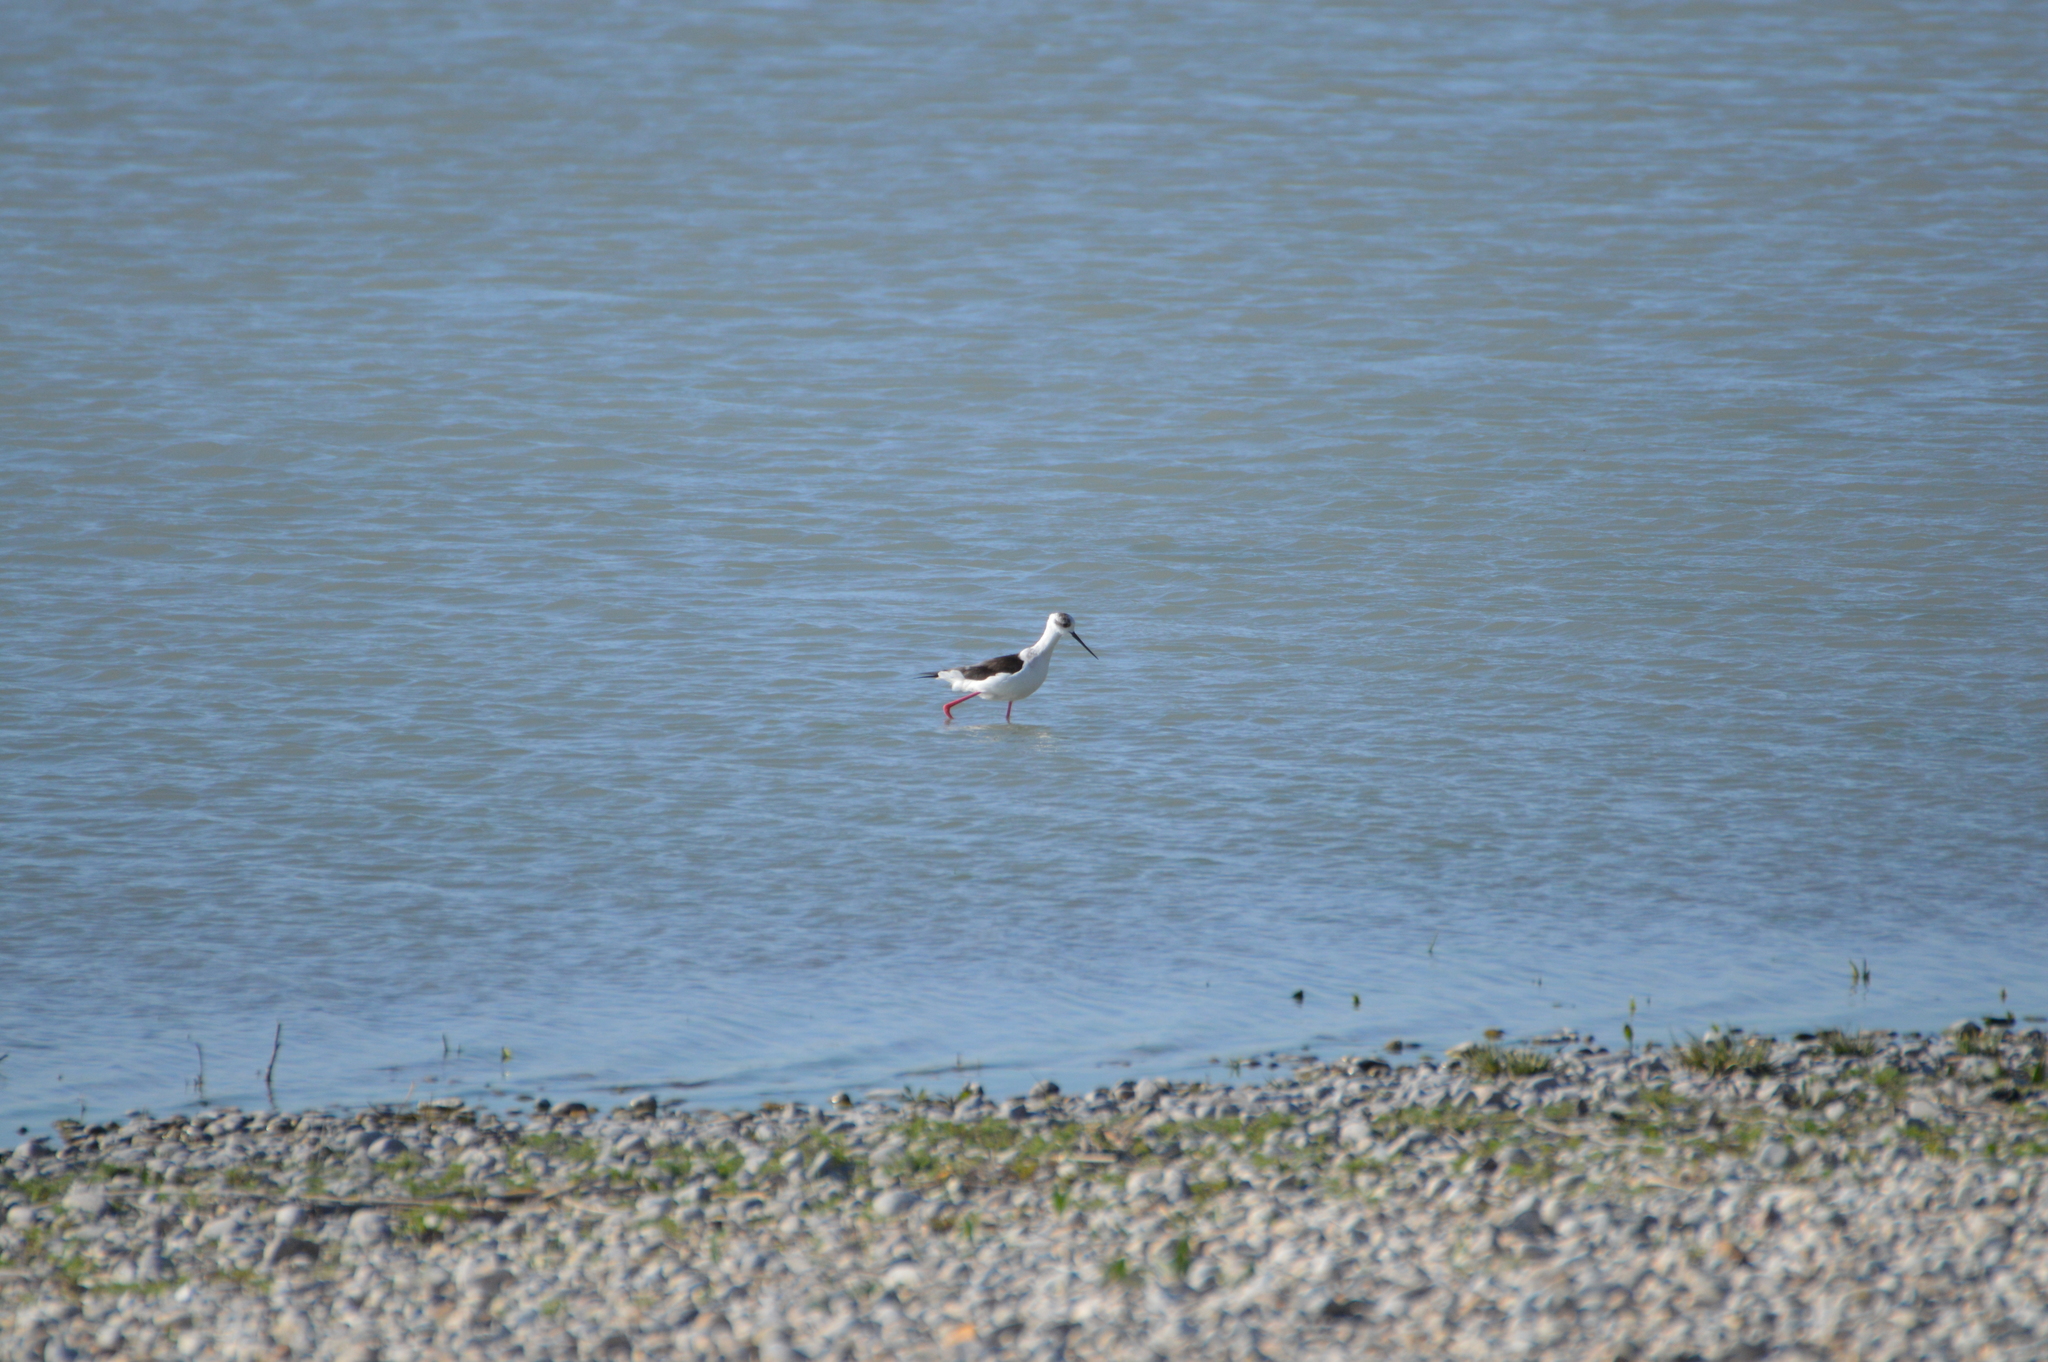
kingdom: Animalia
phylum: Chordata
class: Aves
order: Charadriiformes
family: Recurvirostridae
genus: Himantopus
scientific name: Himantopus himantopus
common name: Black-winged stilt
